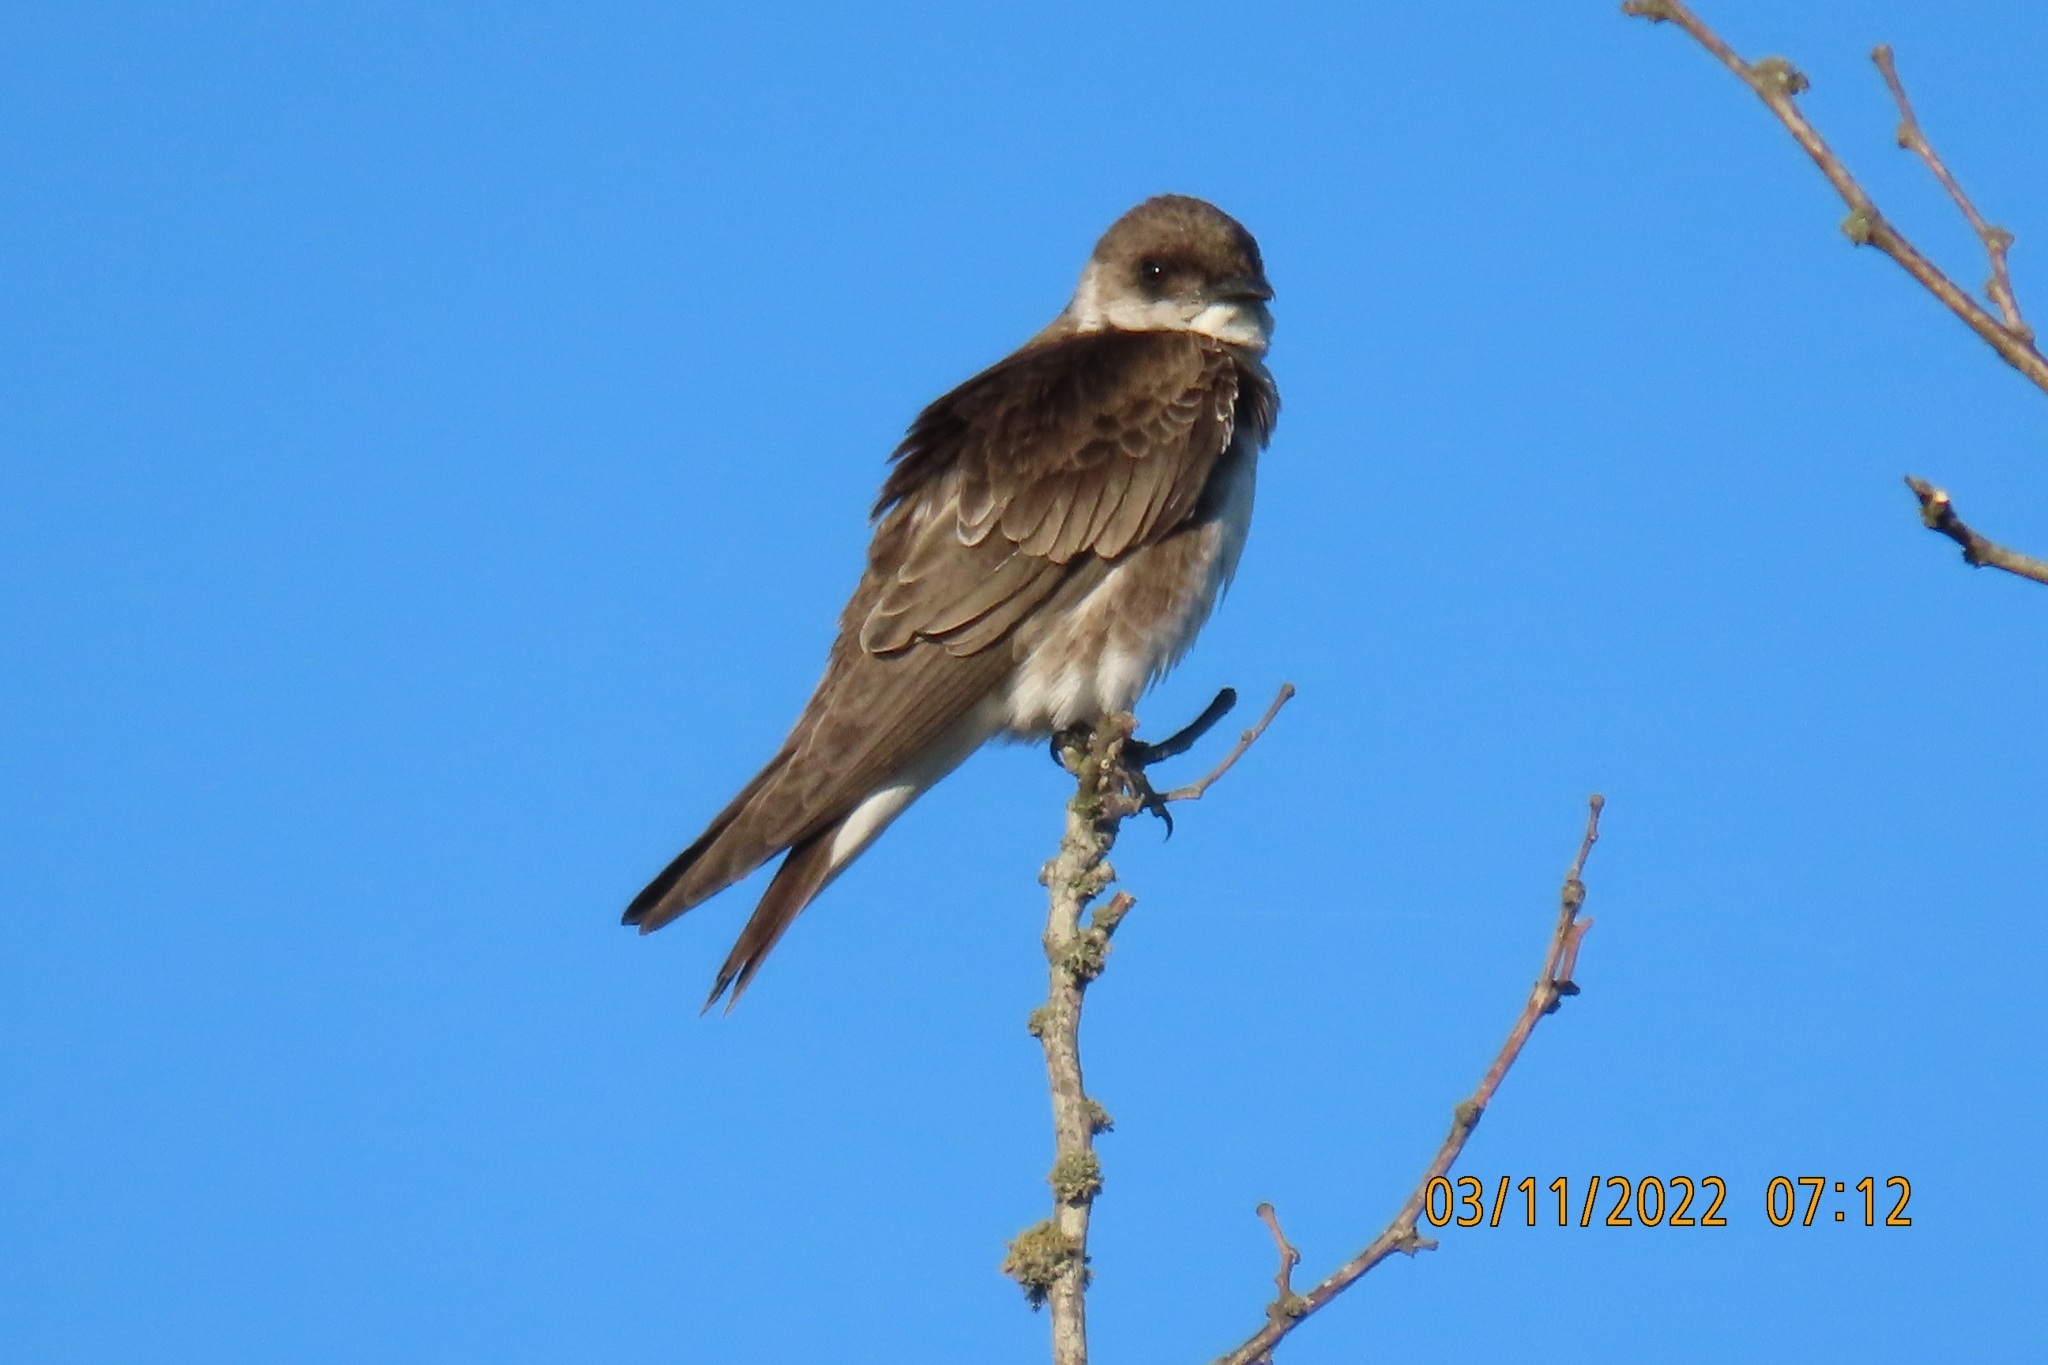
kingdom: Animalia
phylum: Chordata
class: Aves
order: Passeriformes
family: Hirundinidae
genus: Progne
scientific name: Progne tapera
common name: Brown-chested martin
